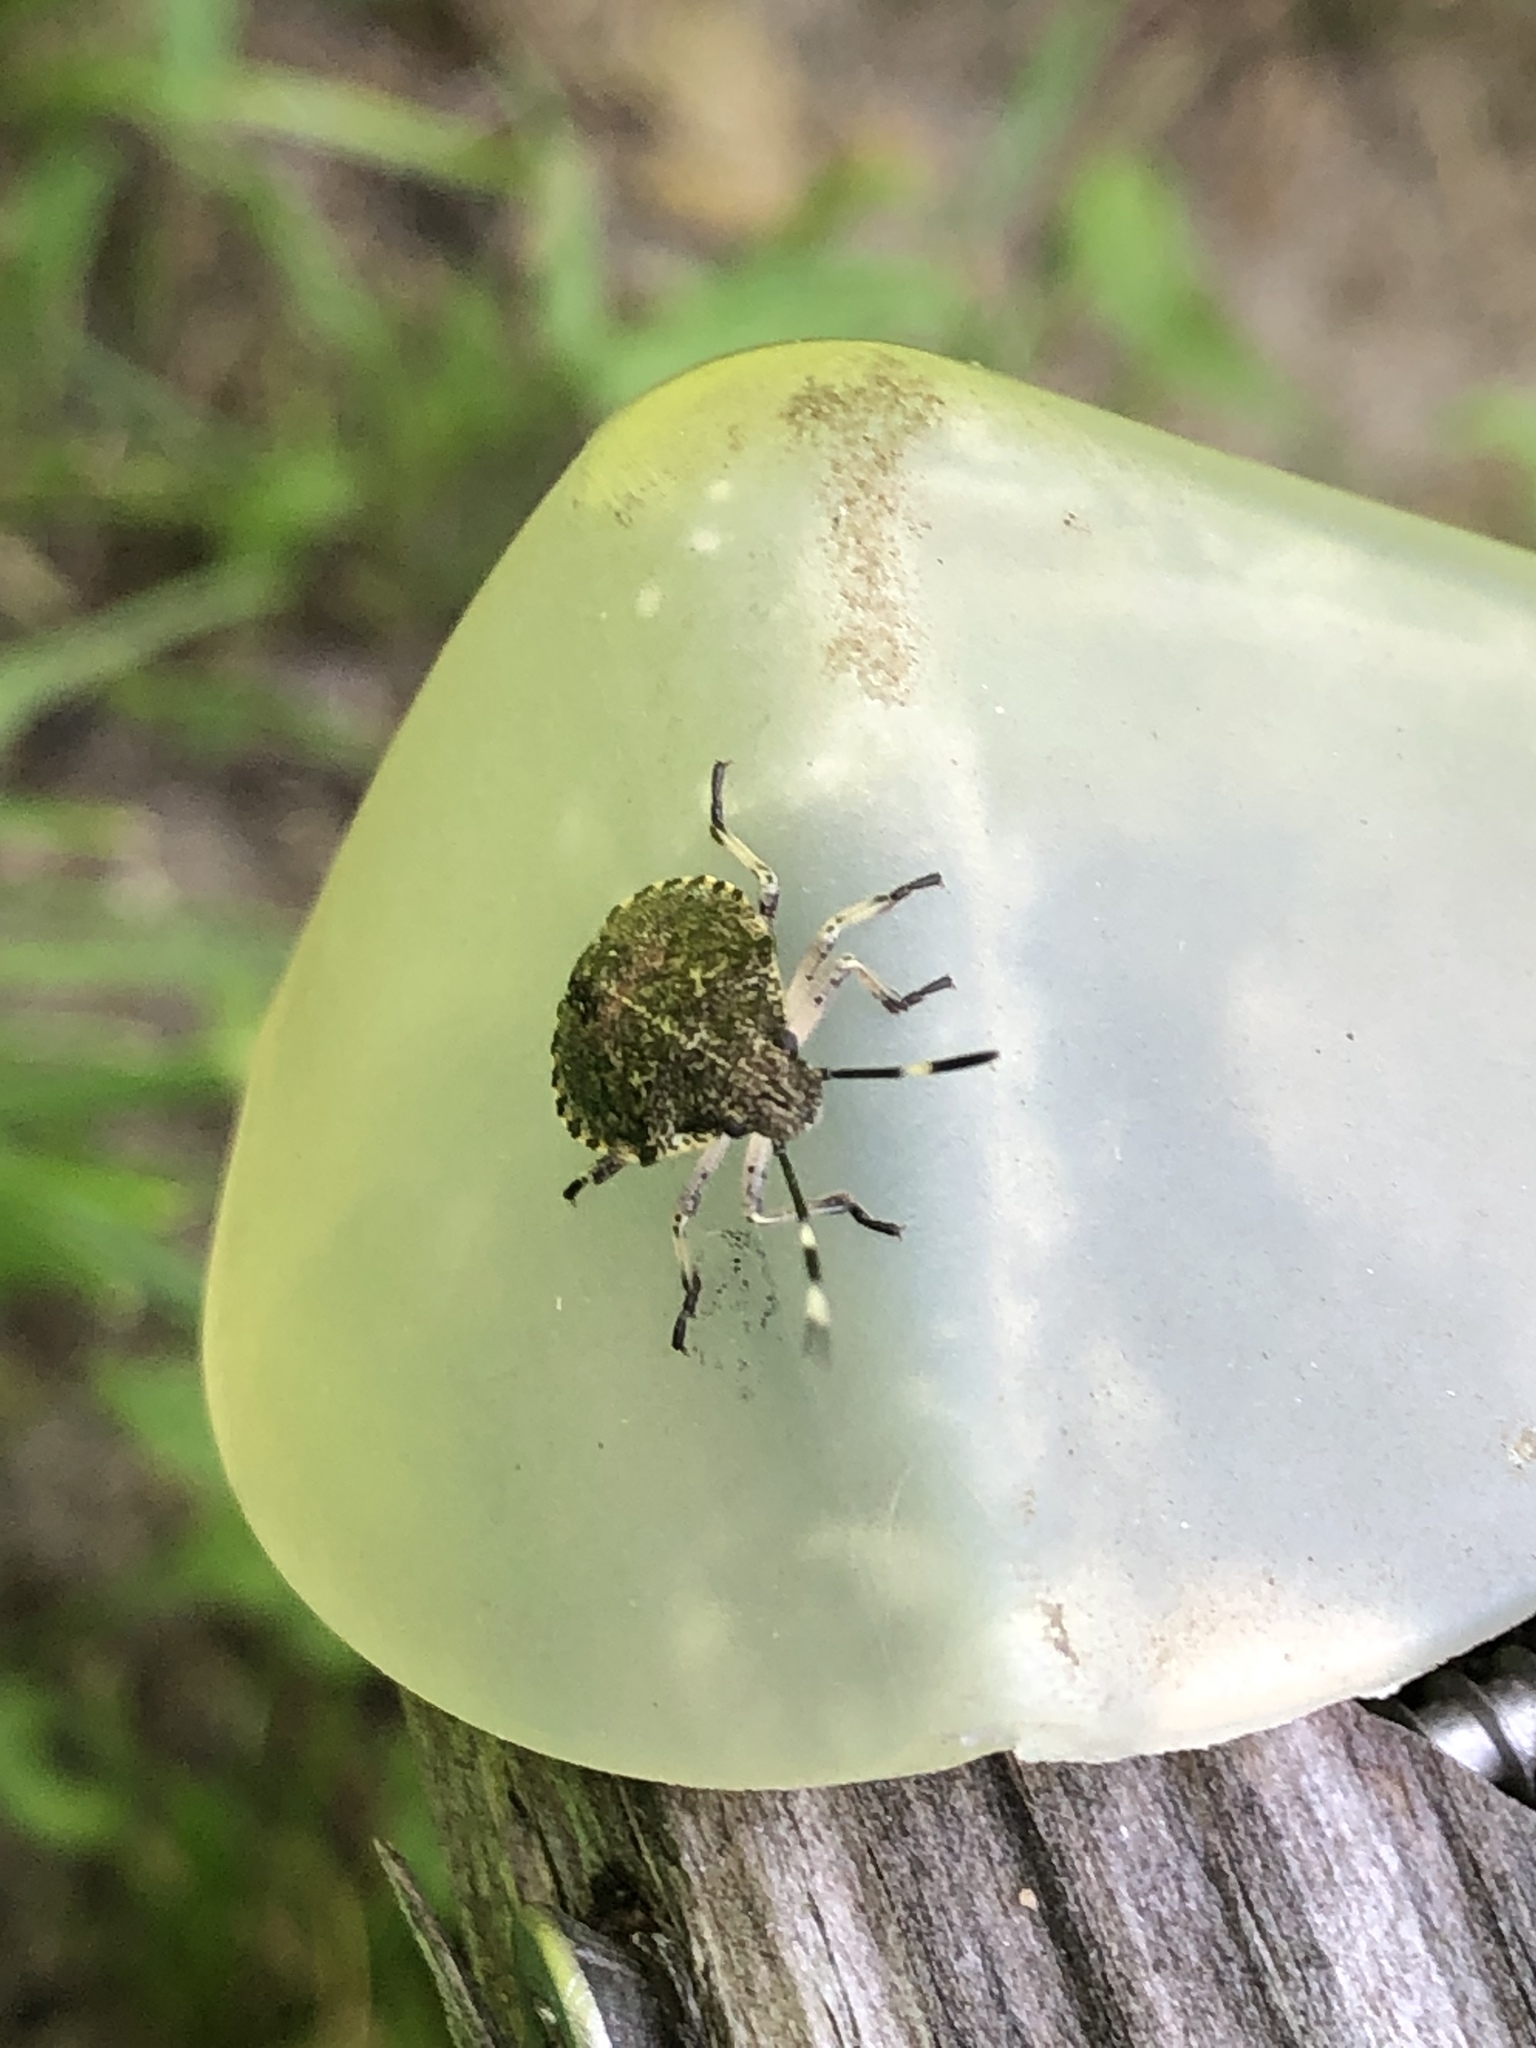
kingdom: Animalia
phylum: Arthropoda
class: Insecta
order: Hemiptera
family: Pentatomidae
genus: Rhaphigaster
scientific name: Rhaphigaster nebulosa
